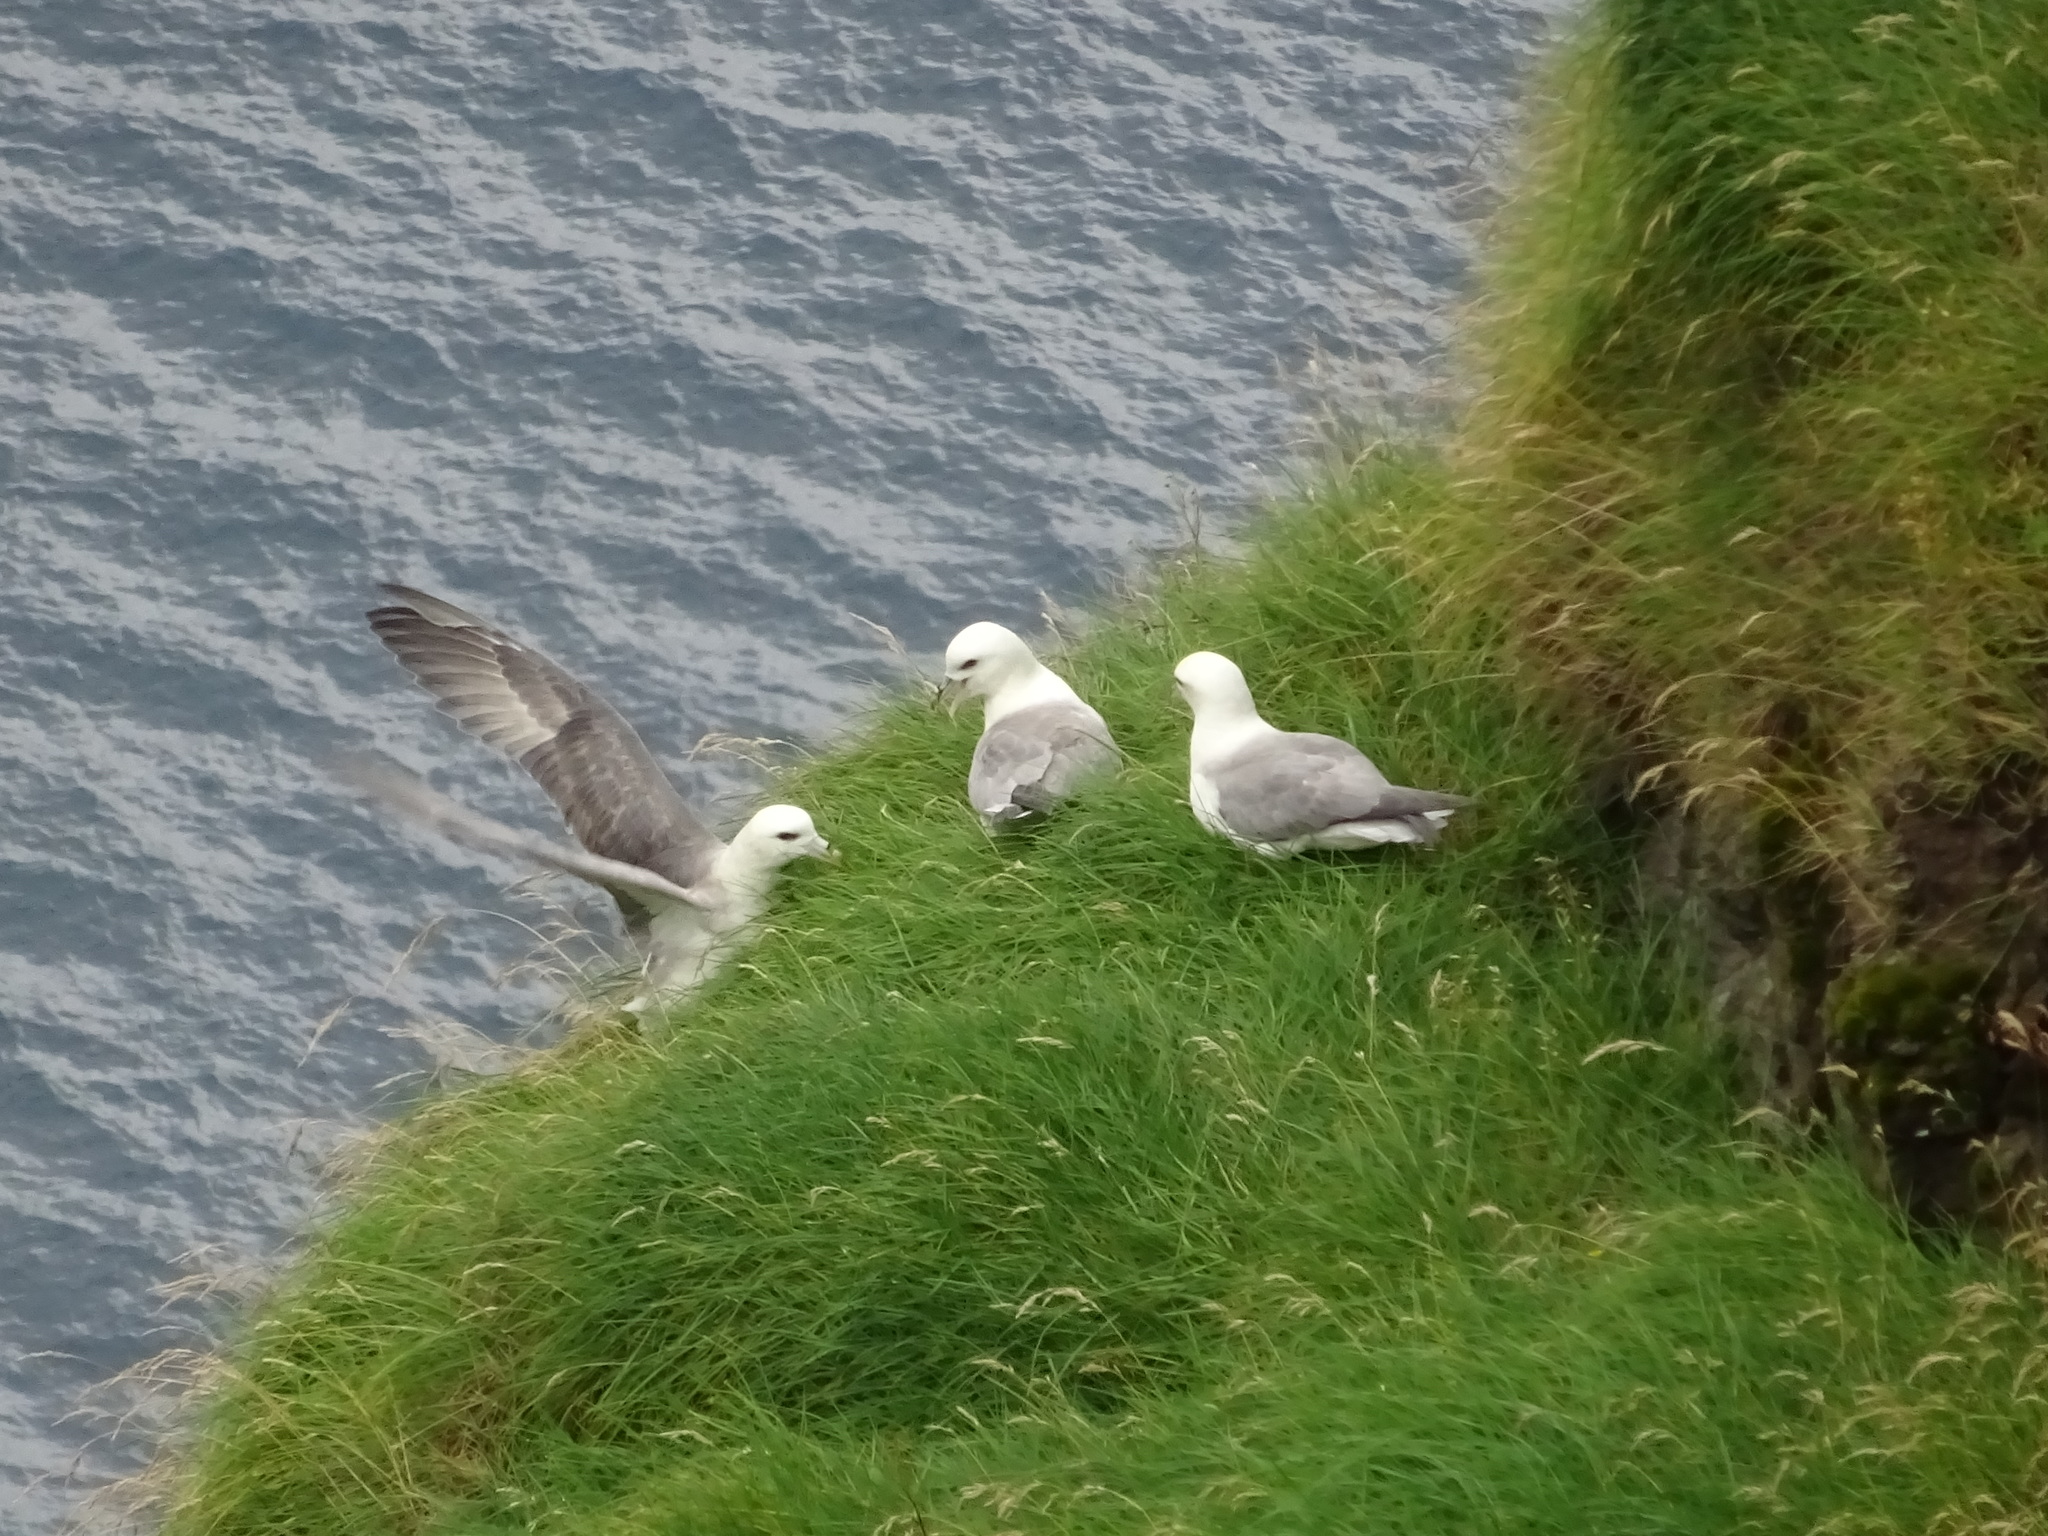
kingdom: Animalia
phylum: Chordata
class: Aves
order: Procellariiformes
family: Procellariidae
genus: Fulmarus
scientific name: Fulmarus glacialis
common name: Northern fulmar
